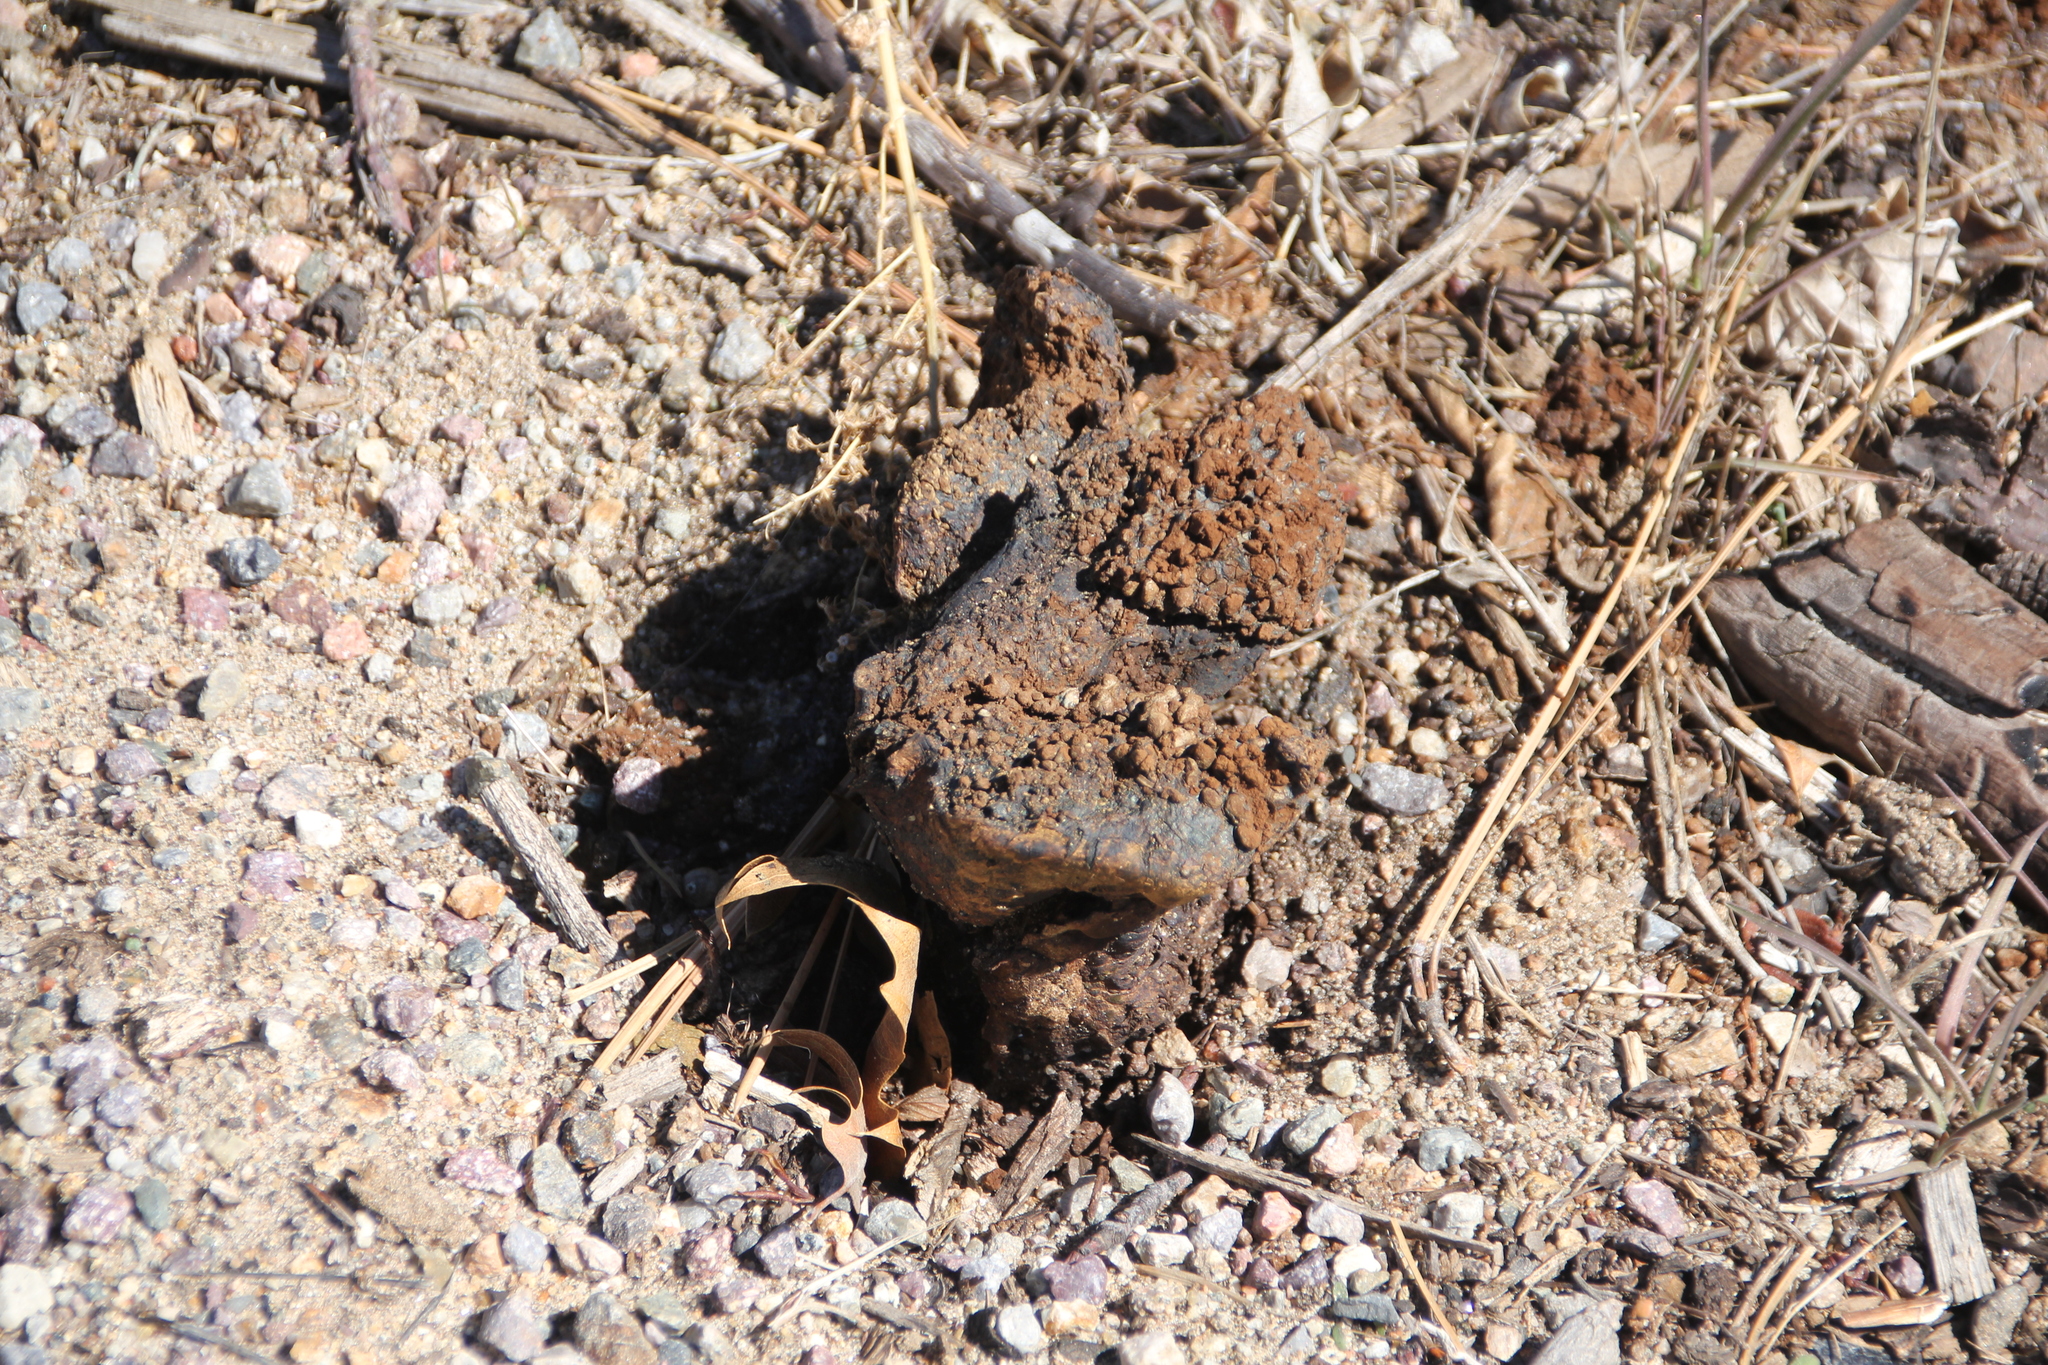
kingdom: Fungi
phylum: Basidiomycota
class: Agaricomycetes
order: Boletales
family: Sclerodermataceae
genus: Pisolithus
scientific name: Pisolithus arhizus
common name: Dyeball
